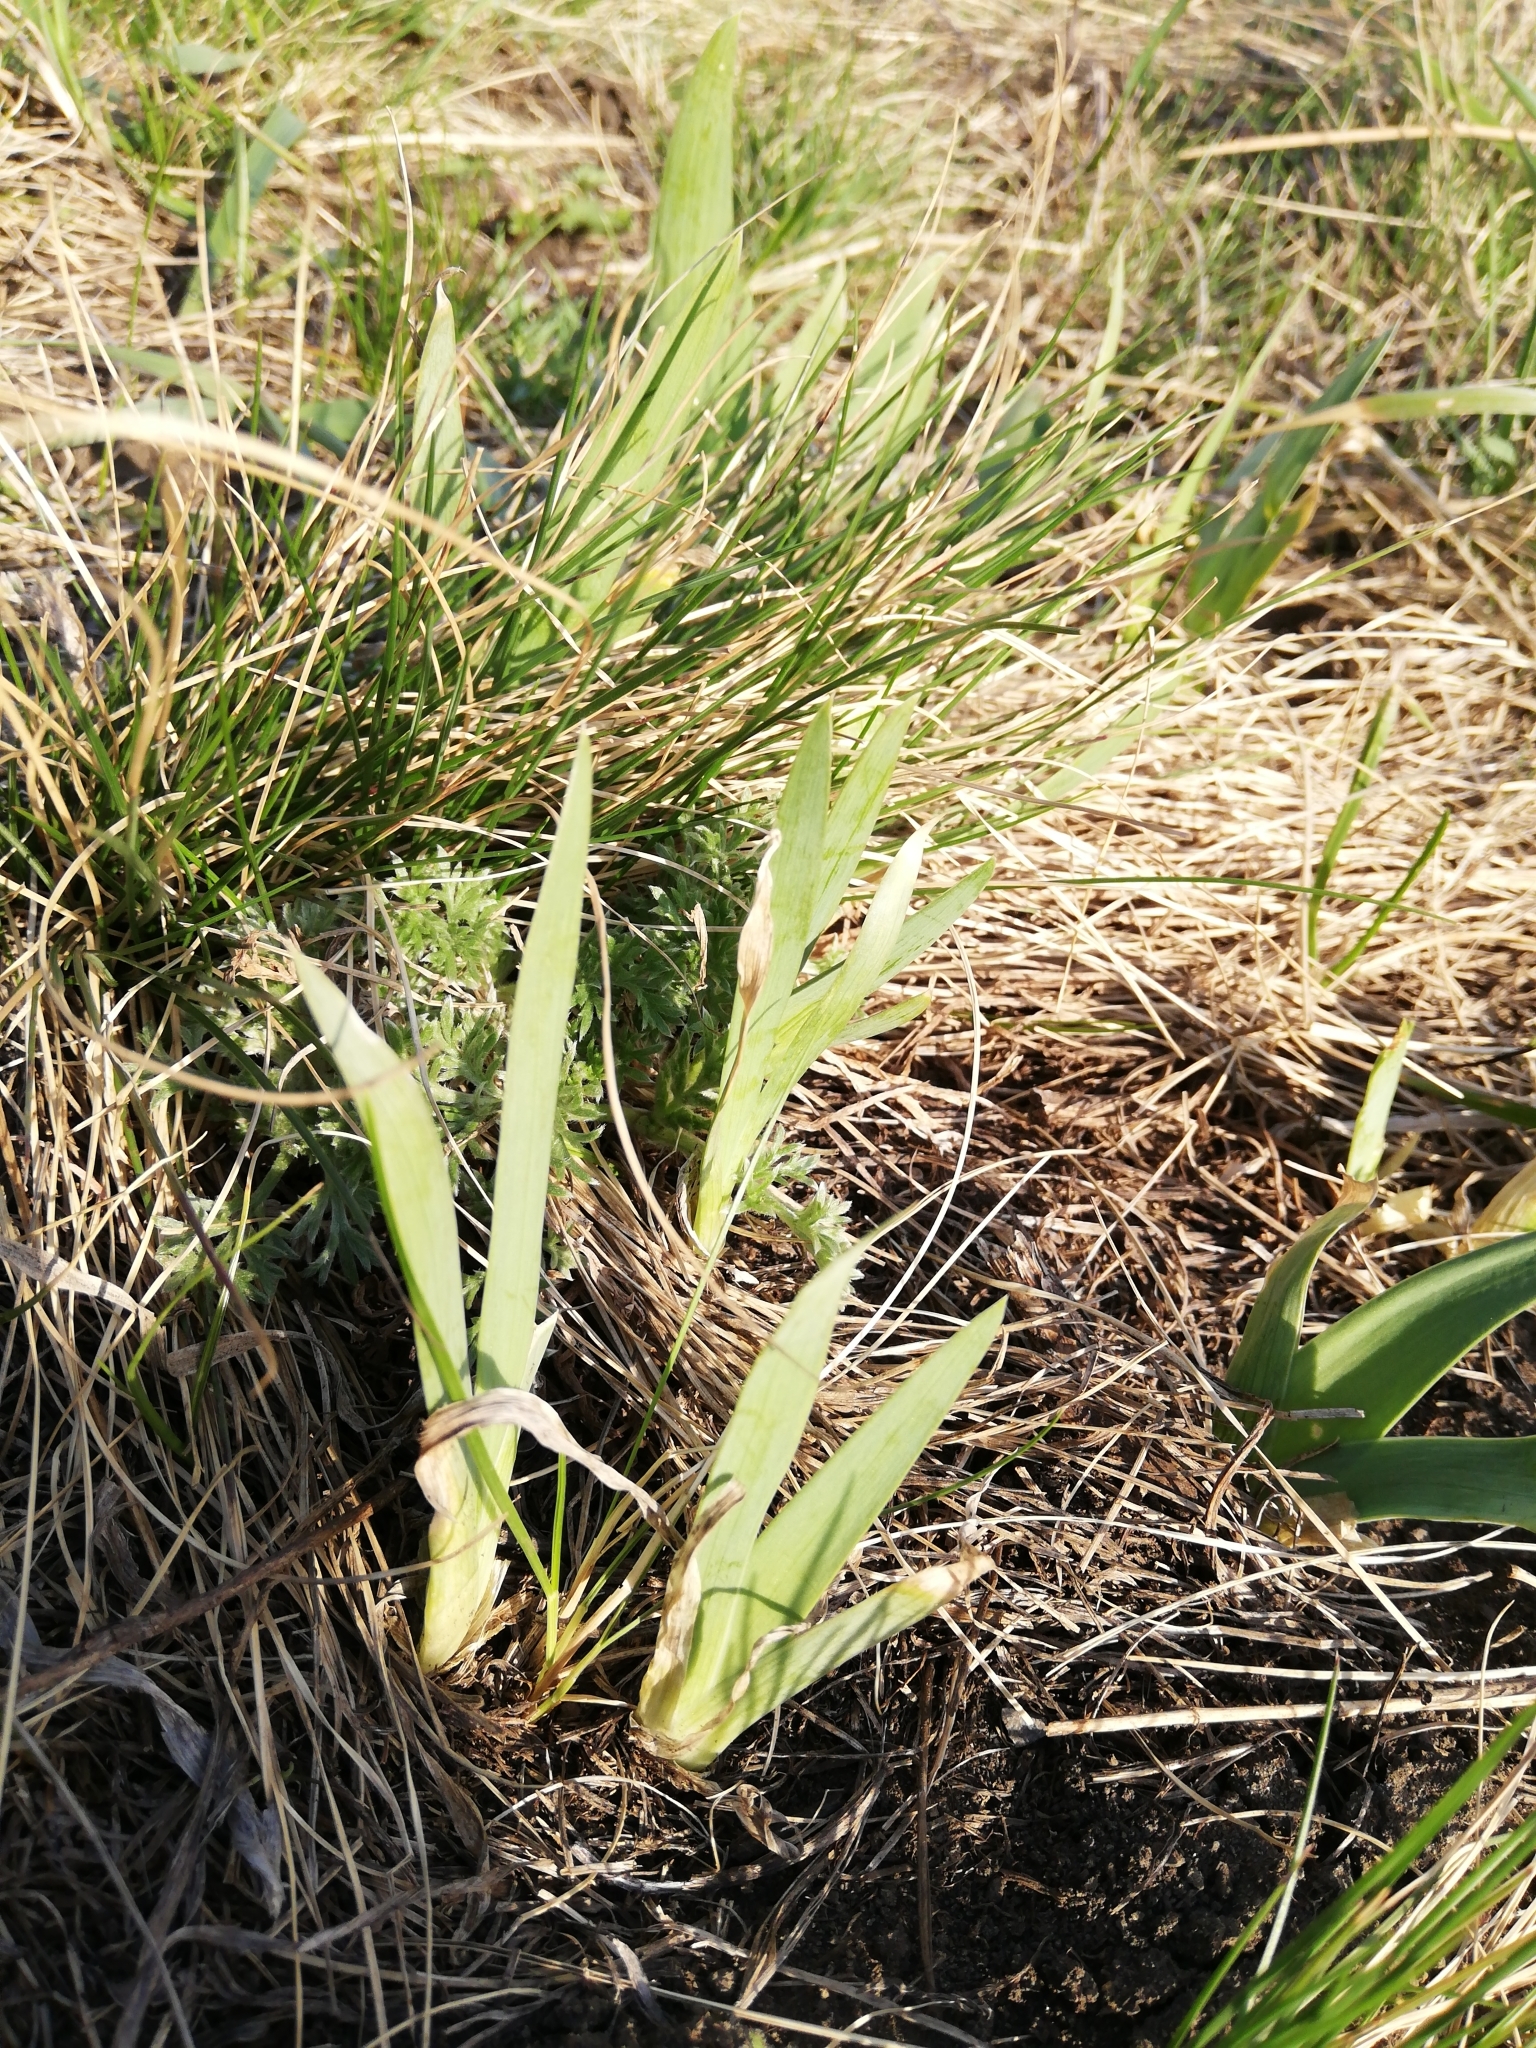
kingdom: Plantae
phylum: Tracheophyta
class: Liliopsida
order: Asparagales
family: Iridaceae
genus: Iris
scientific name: Iris humilis
